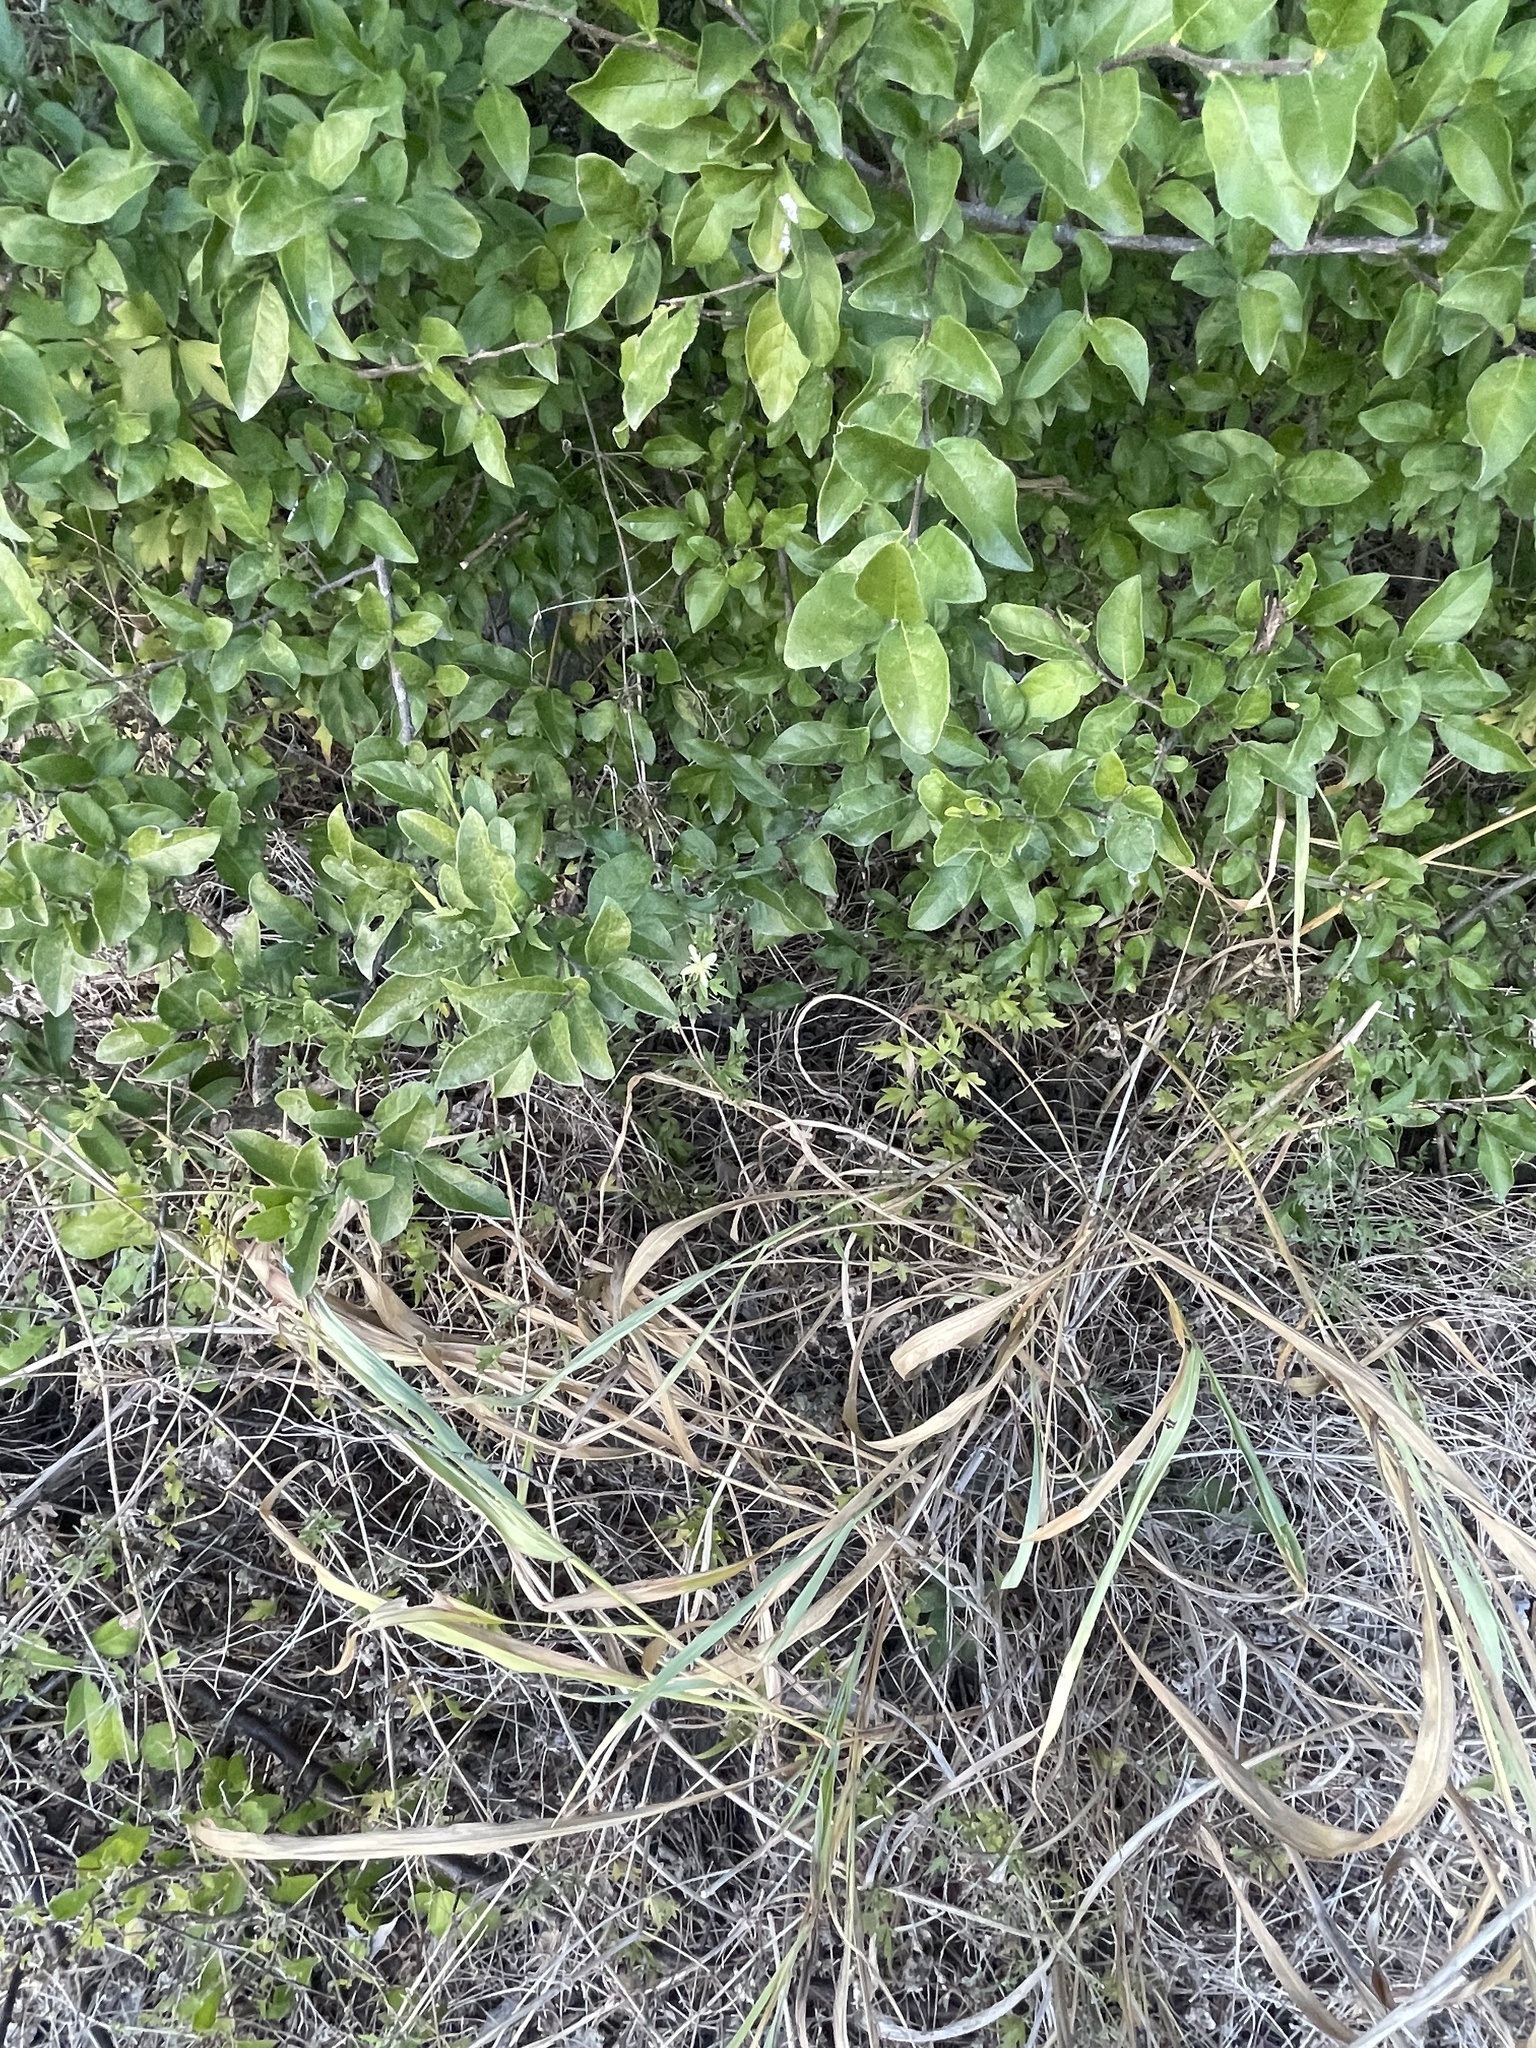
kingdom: Plantae
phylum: Tracheophyta
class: Magnoliopsida
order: Ranunculales
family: Ranunculaceae
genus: Clematis
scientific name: Clematis drummondii
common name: Texas virgin's bower
